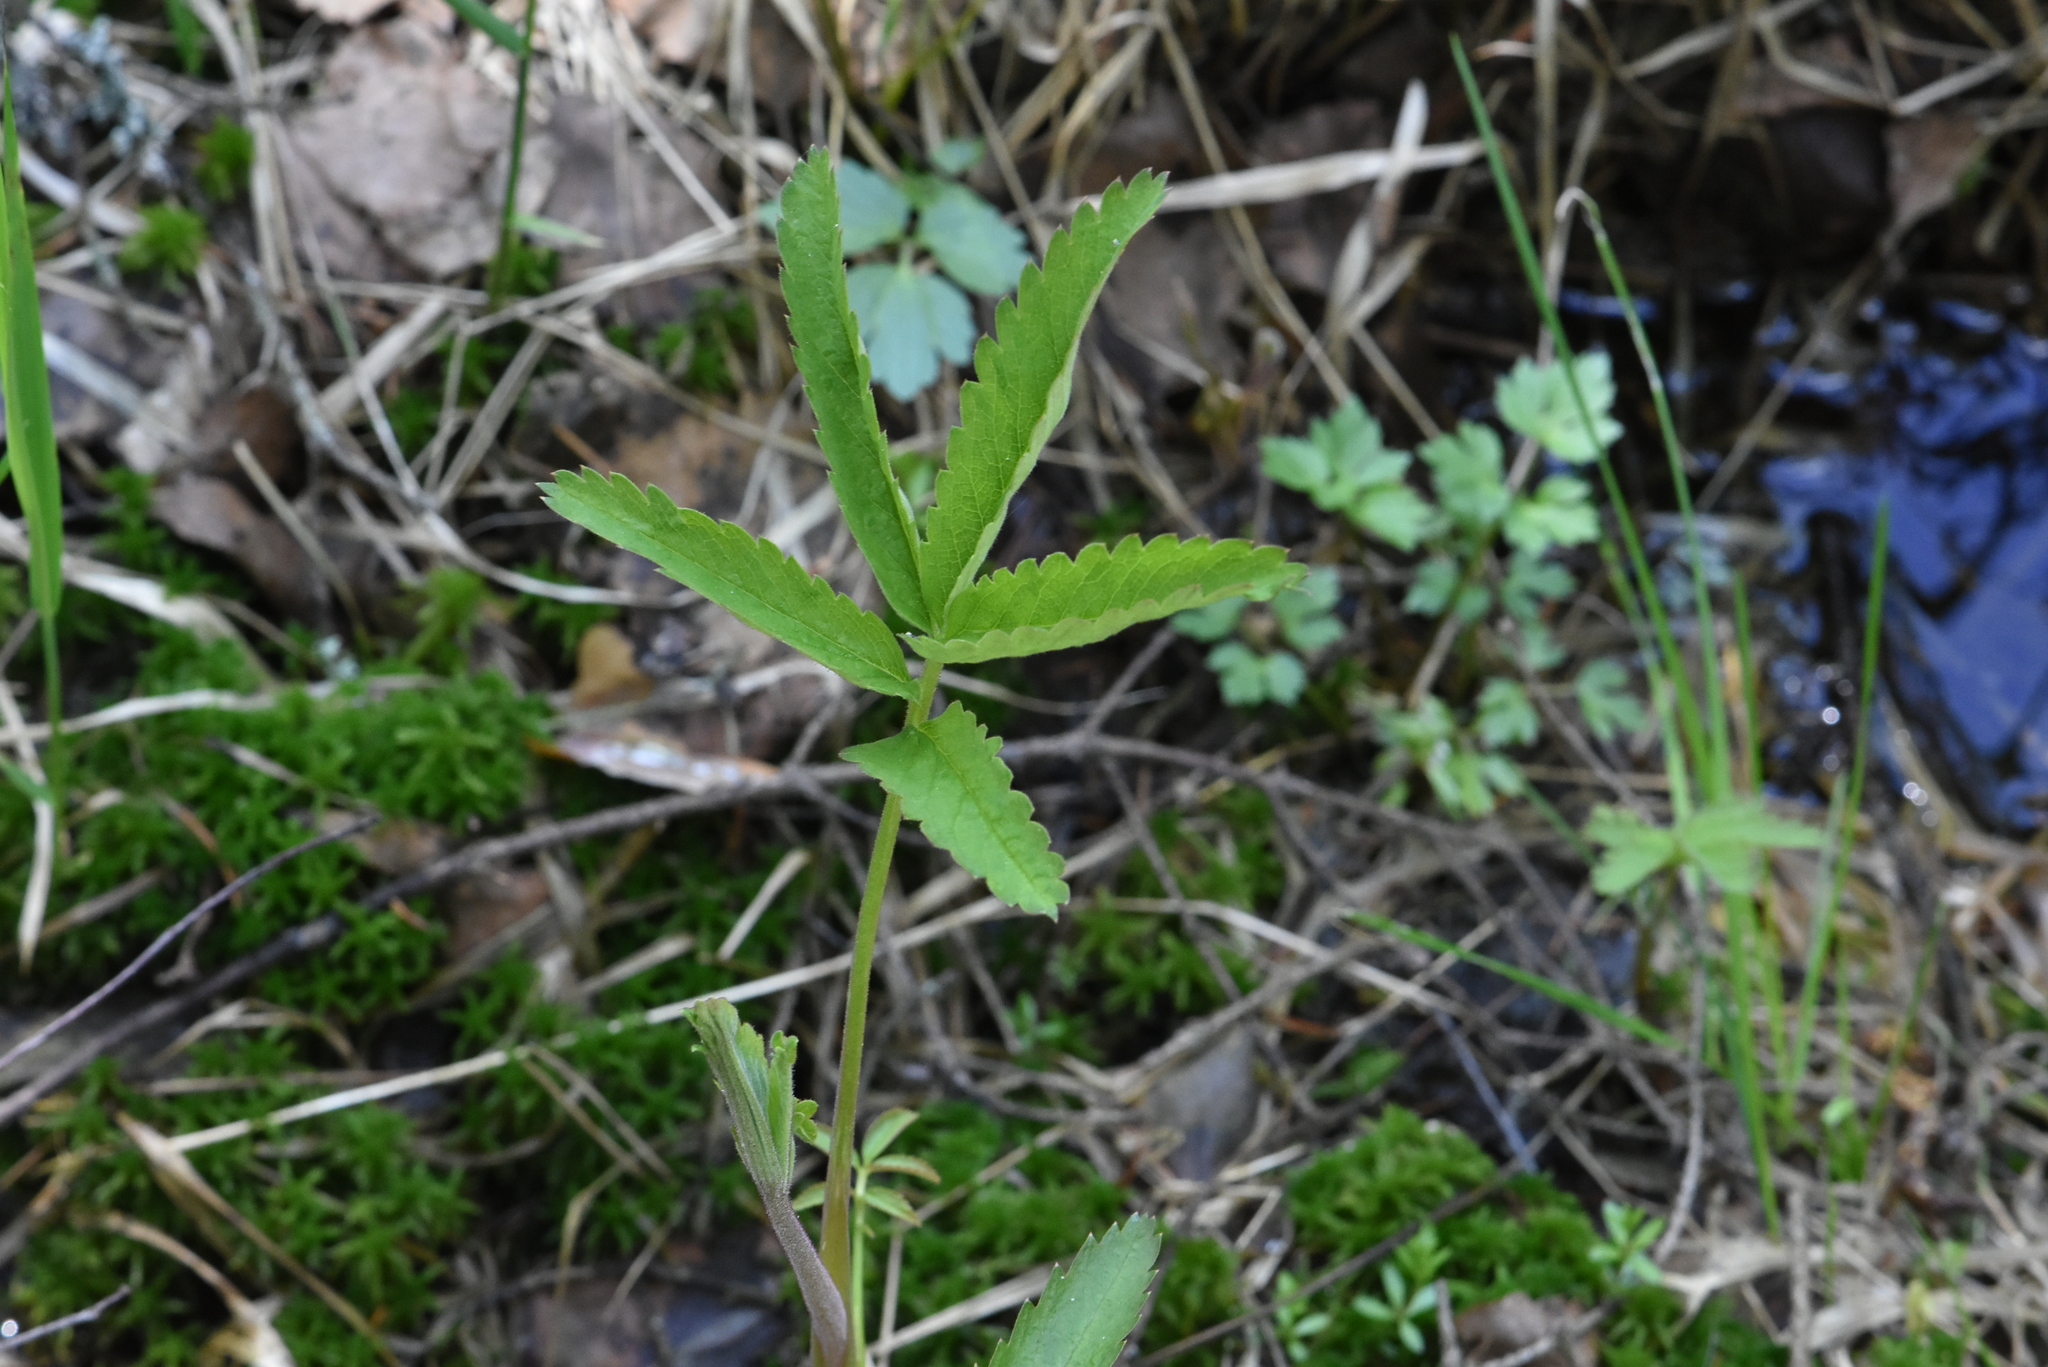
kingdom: Plantae
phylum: Tracheophyta
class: Magnoliopsida
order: Rosales
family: Rosaceae
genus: Comarum
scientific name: Comarum palustre
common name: Marsh cinquefoil
